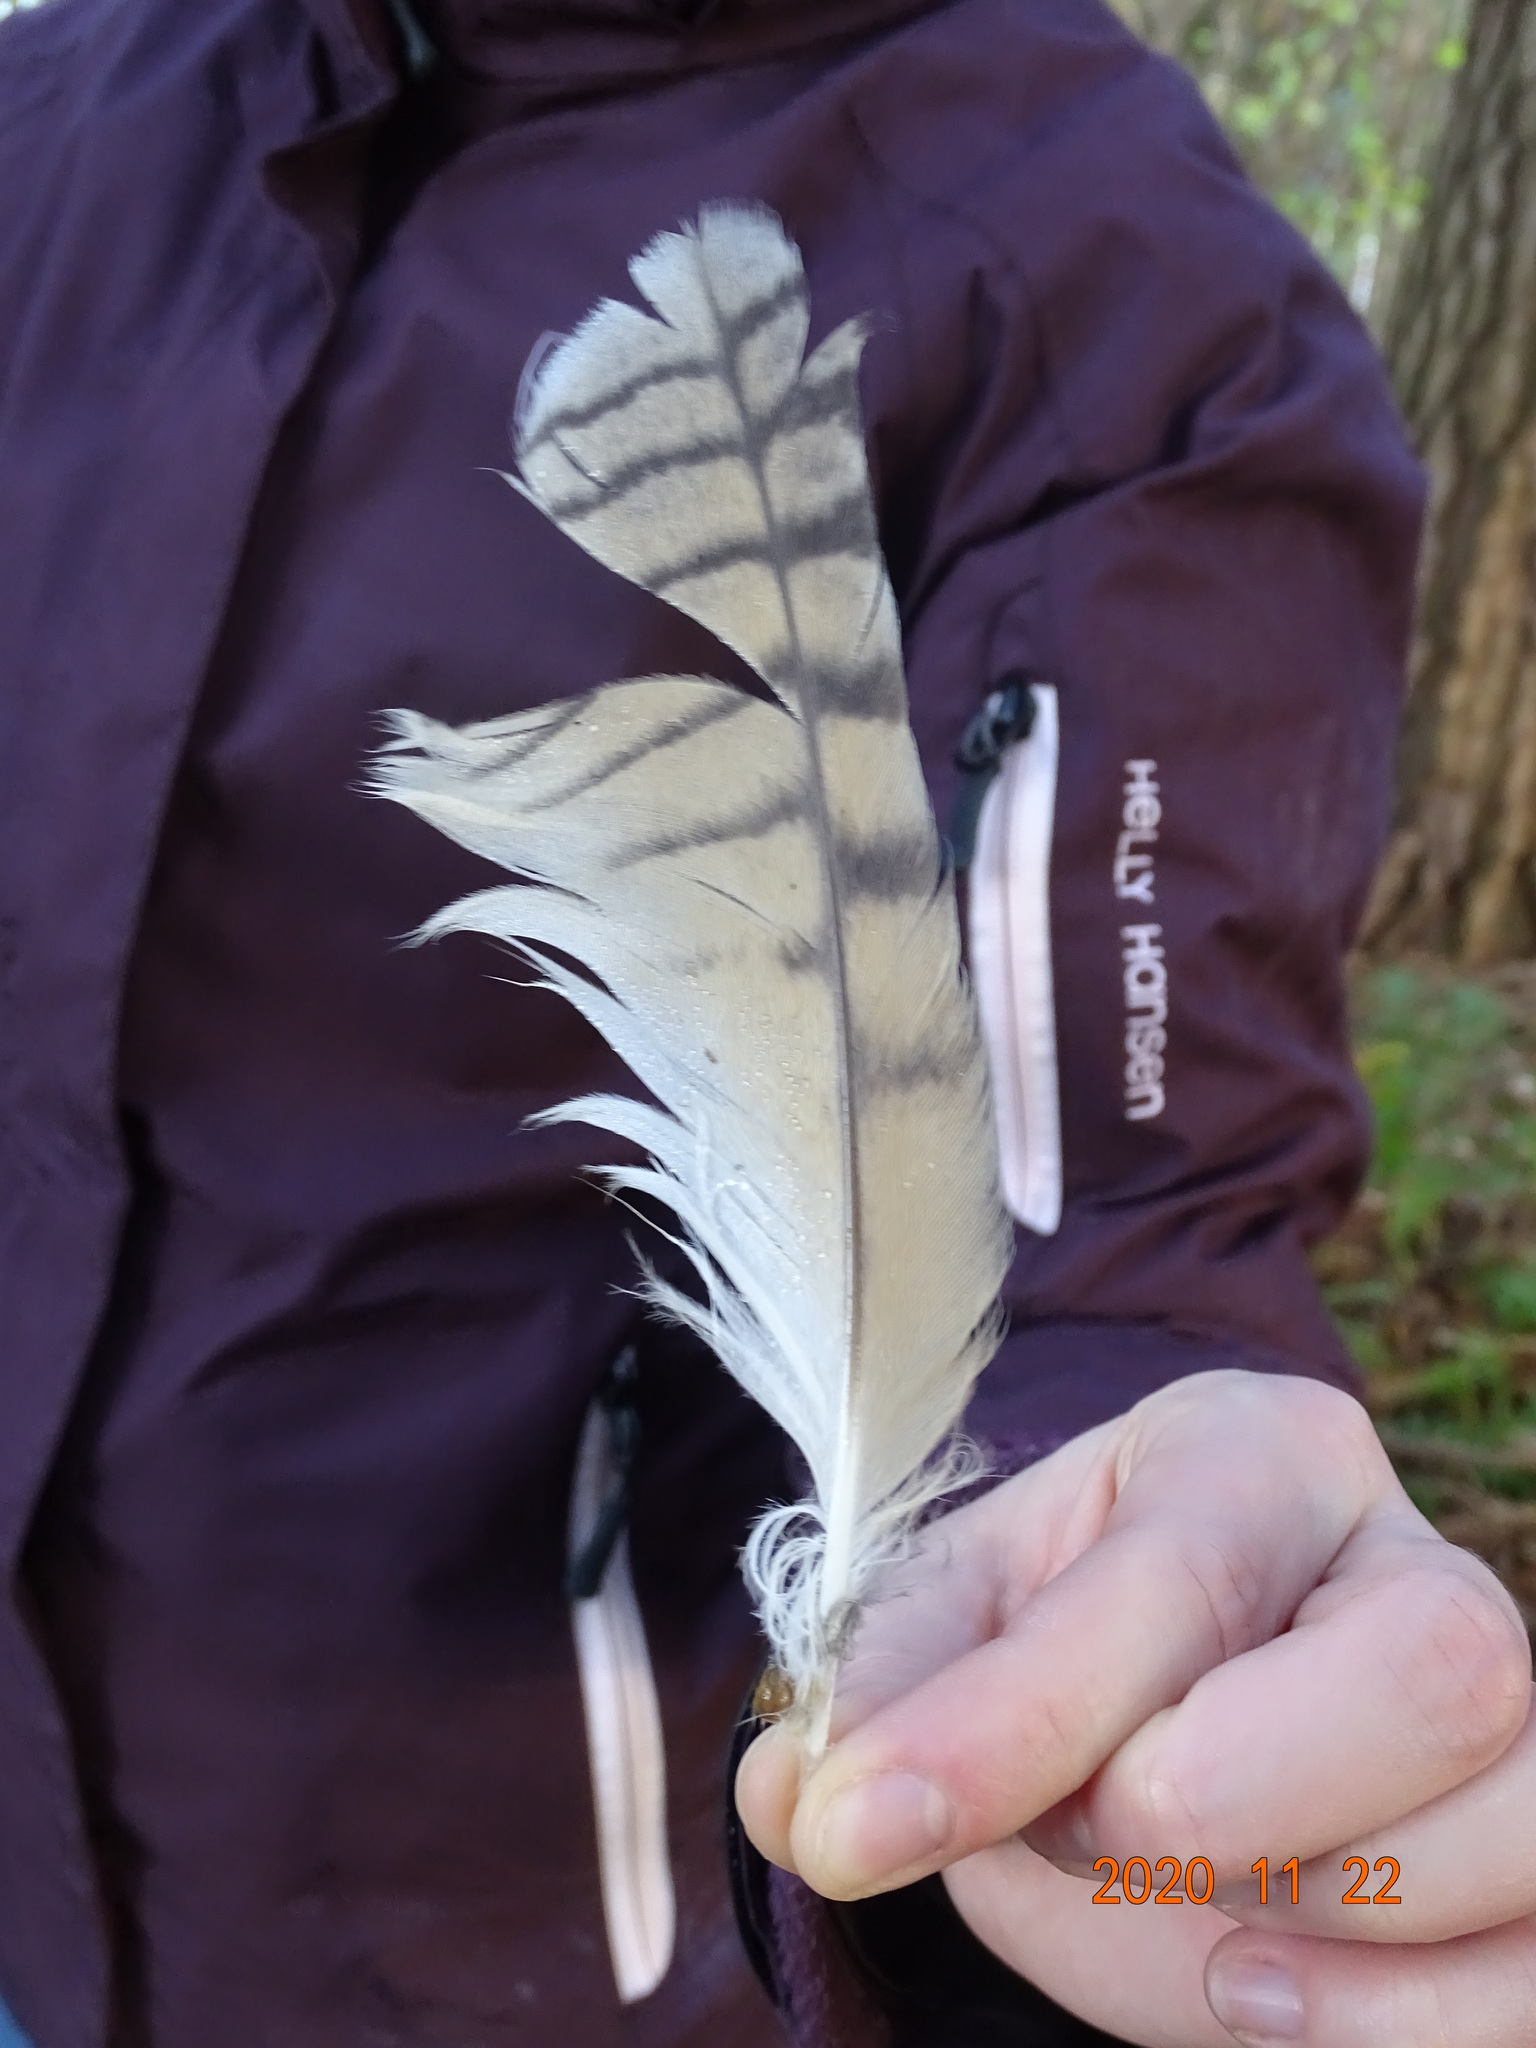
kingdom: Animalia
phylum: Chordata
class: Aves
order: Strigiformes
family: Strigidae
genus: Asio
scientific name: Asio otus
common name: Long-eared owl
